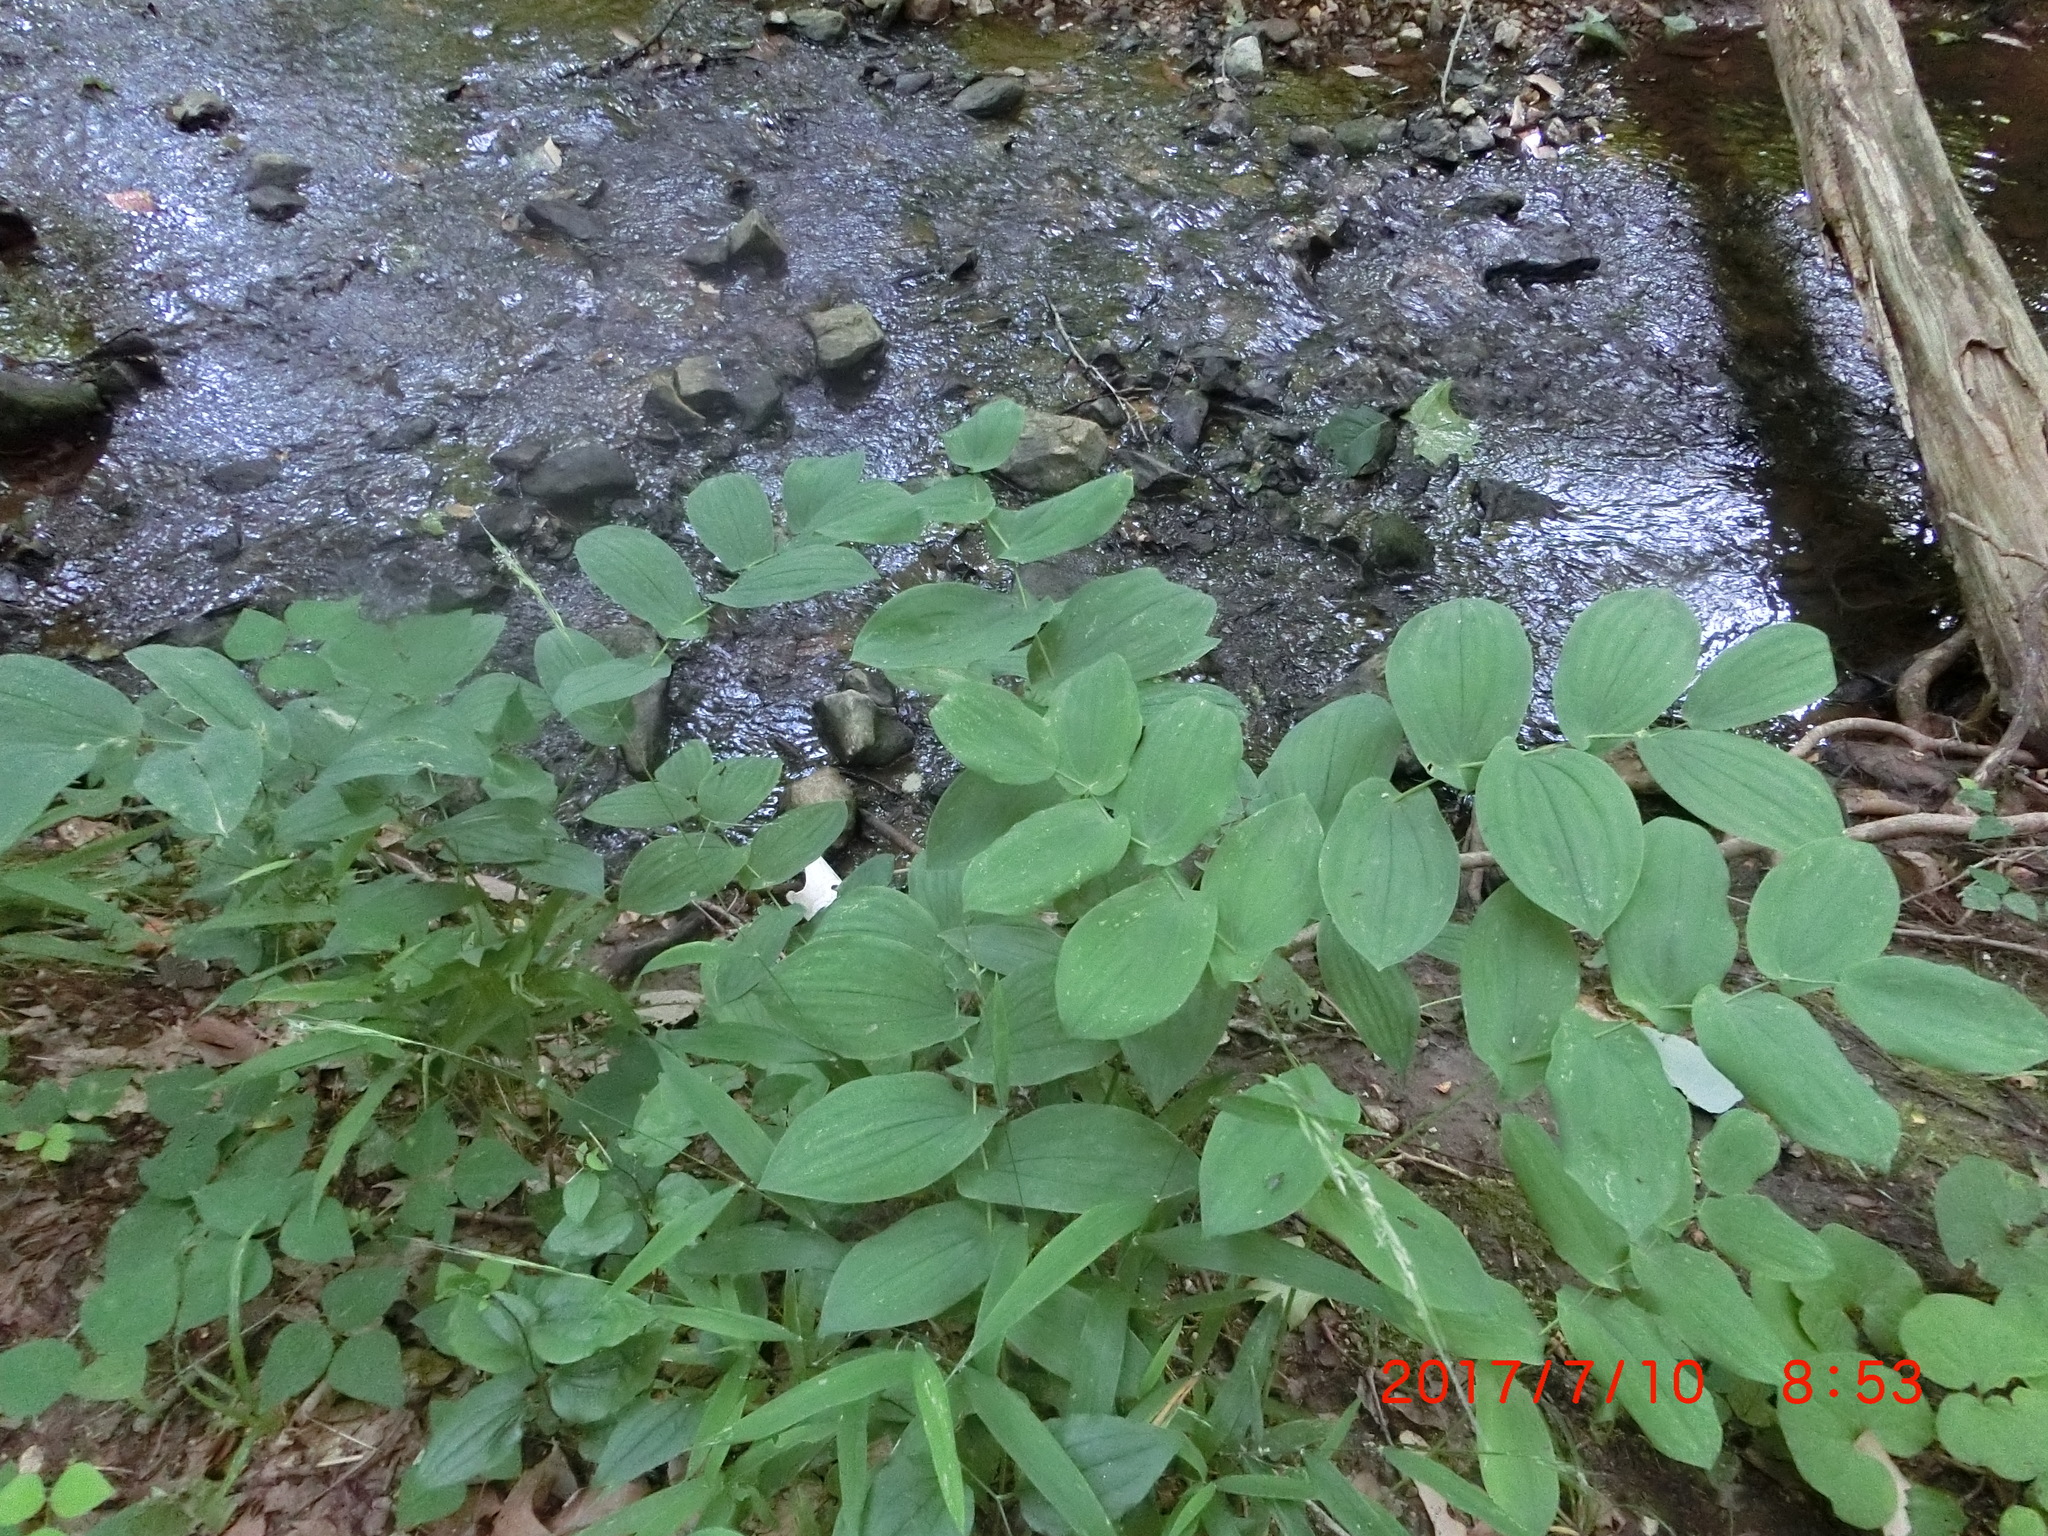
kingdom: Plantae
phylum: Tracheophyta
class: Liliopsida
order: Liliales
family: Colchicaceae
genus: Uvularia
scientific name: Uvularia grandiflora
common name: Bellwort
